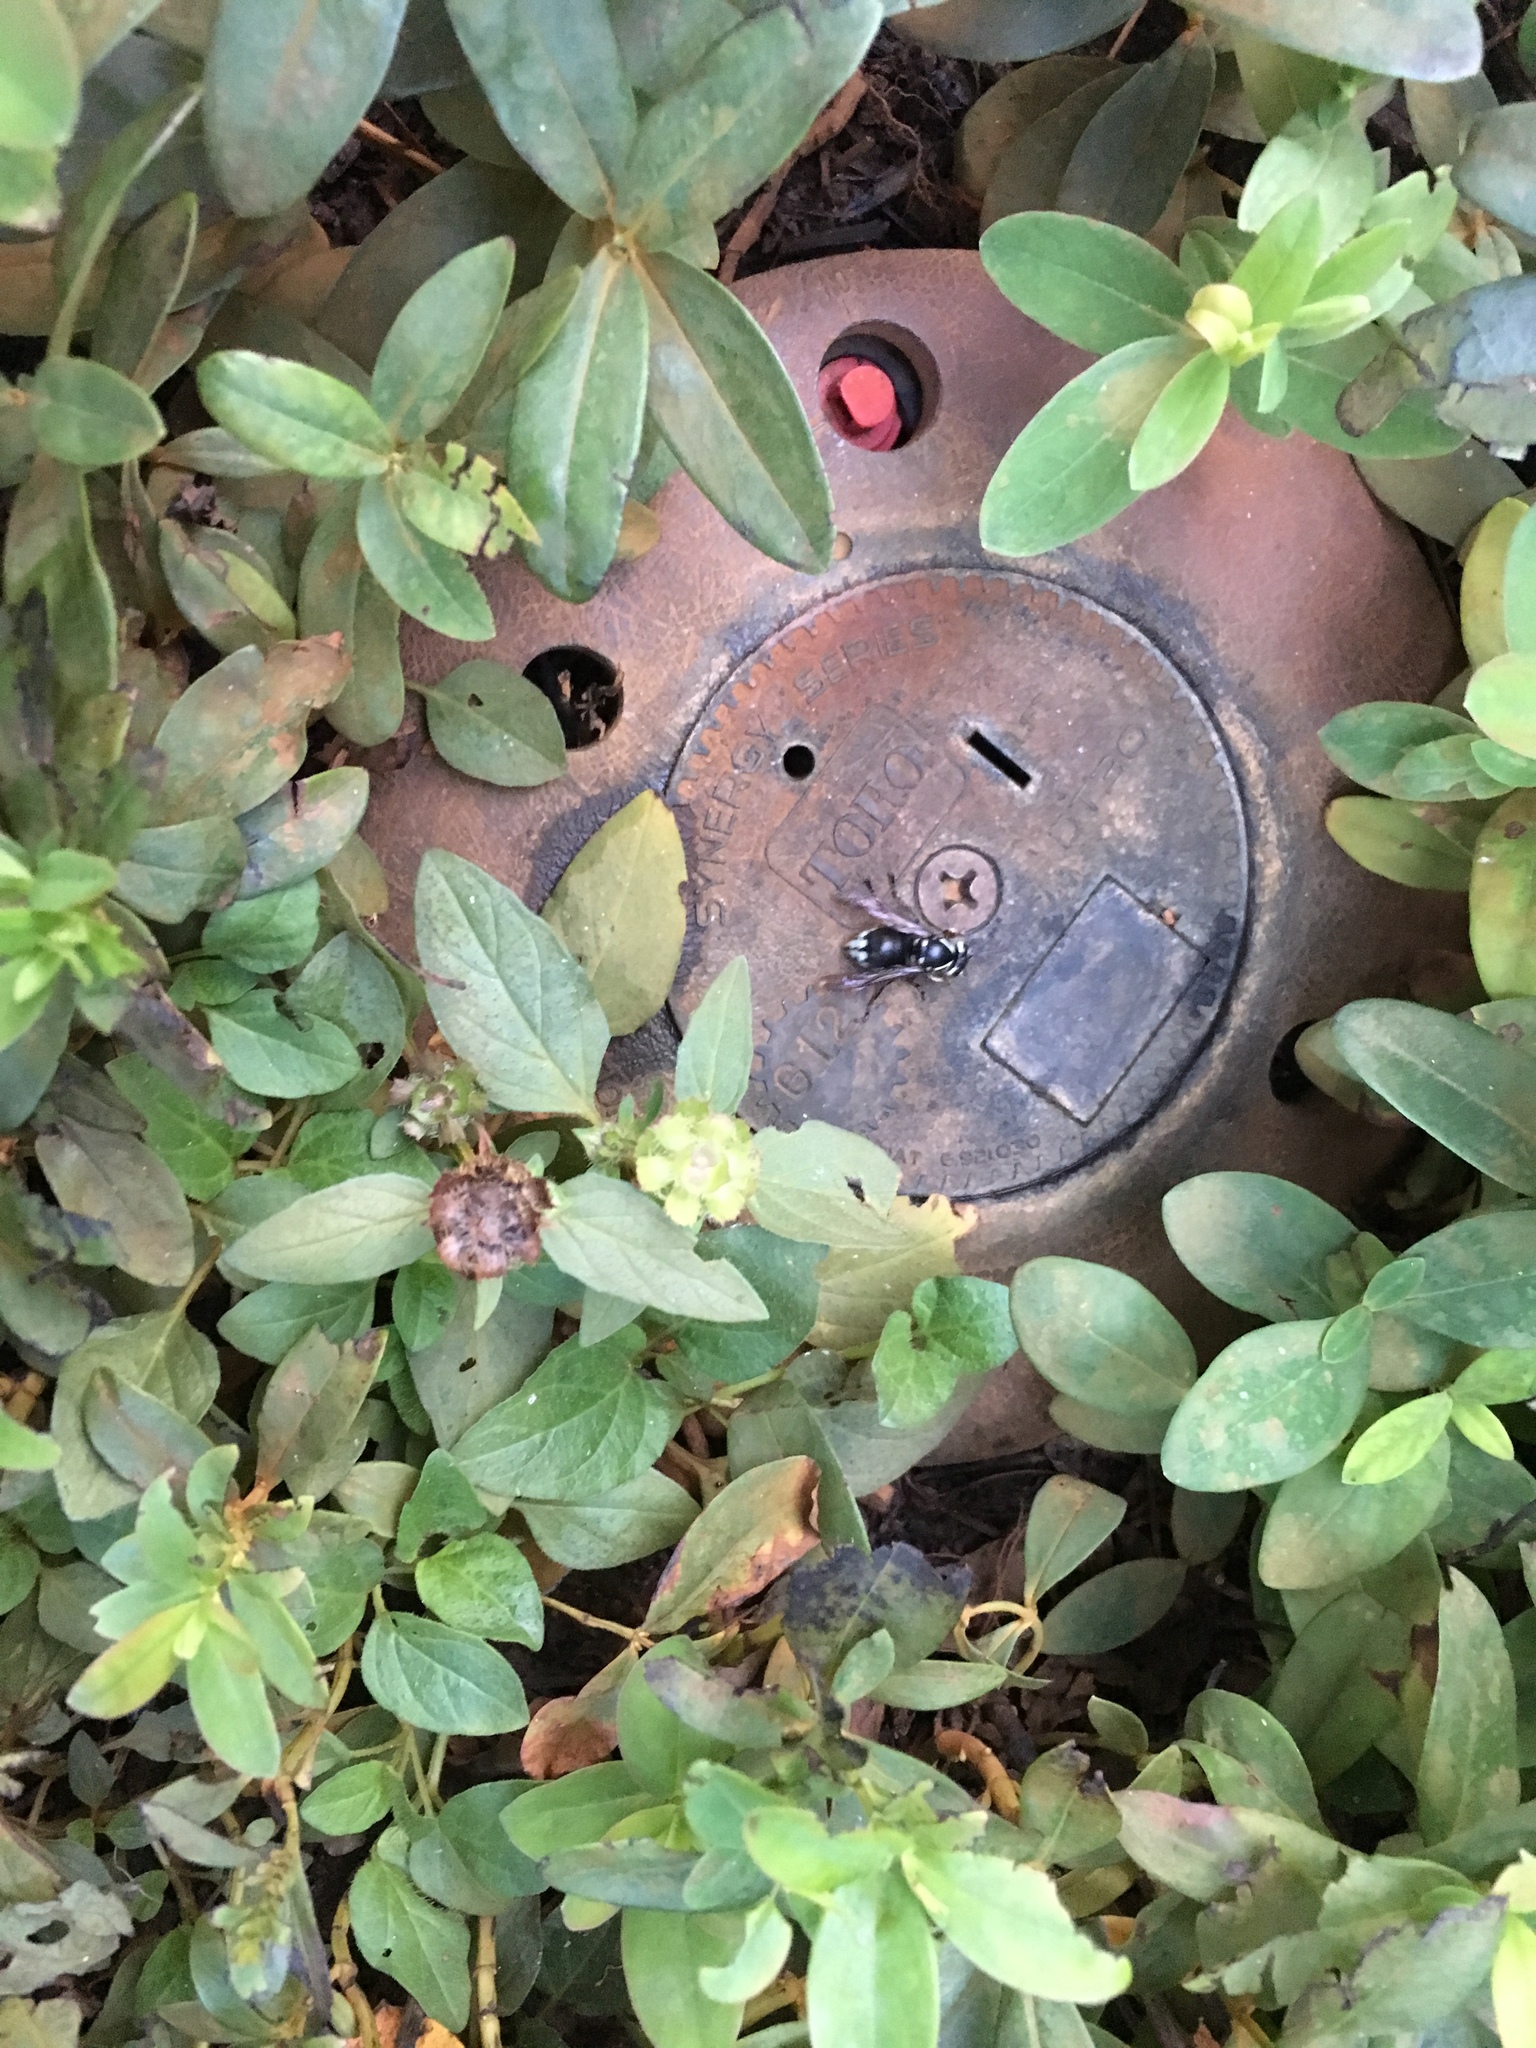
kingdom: Animalia
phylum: Arthropoda
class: Insecta
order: Hymenoptera
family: Vespidae
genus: Dolichovespula
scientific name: Dolichovespula maculata
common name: Bald-faced hornet
